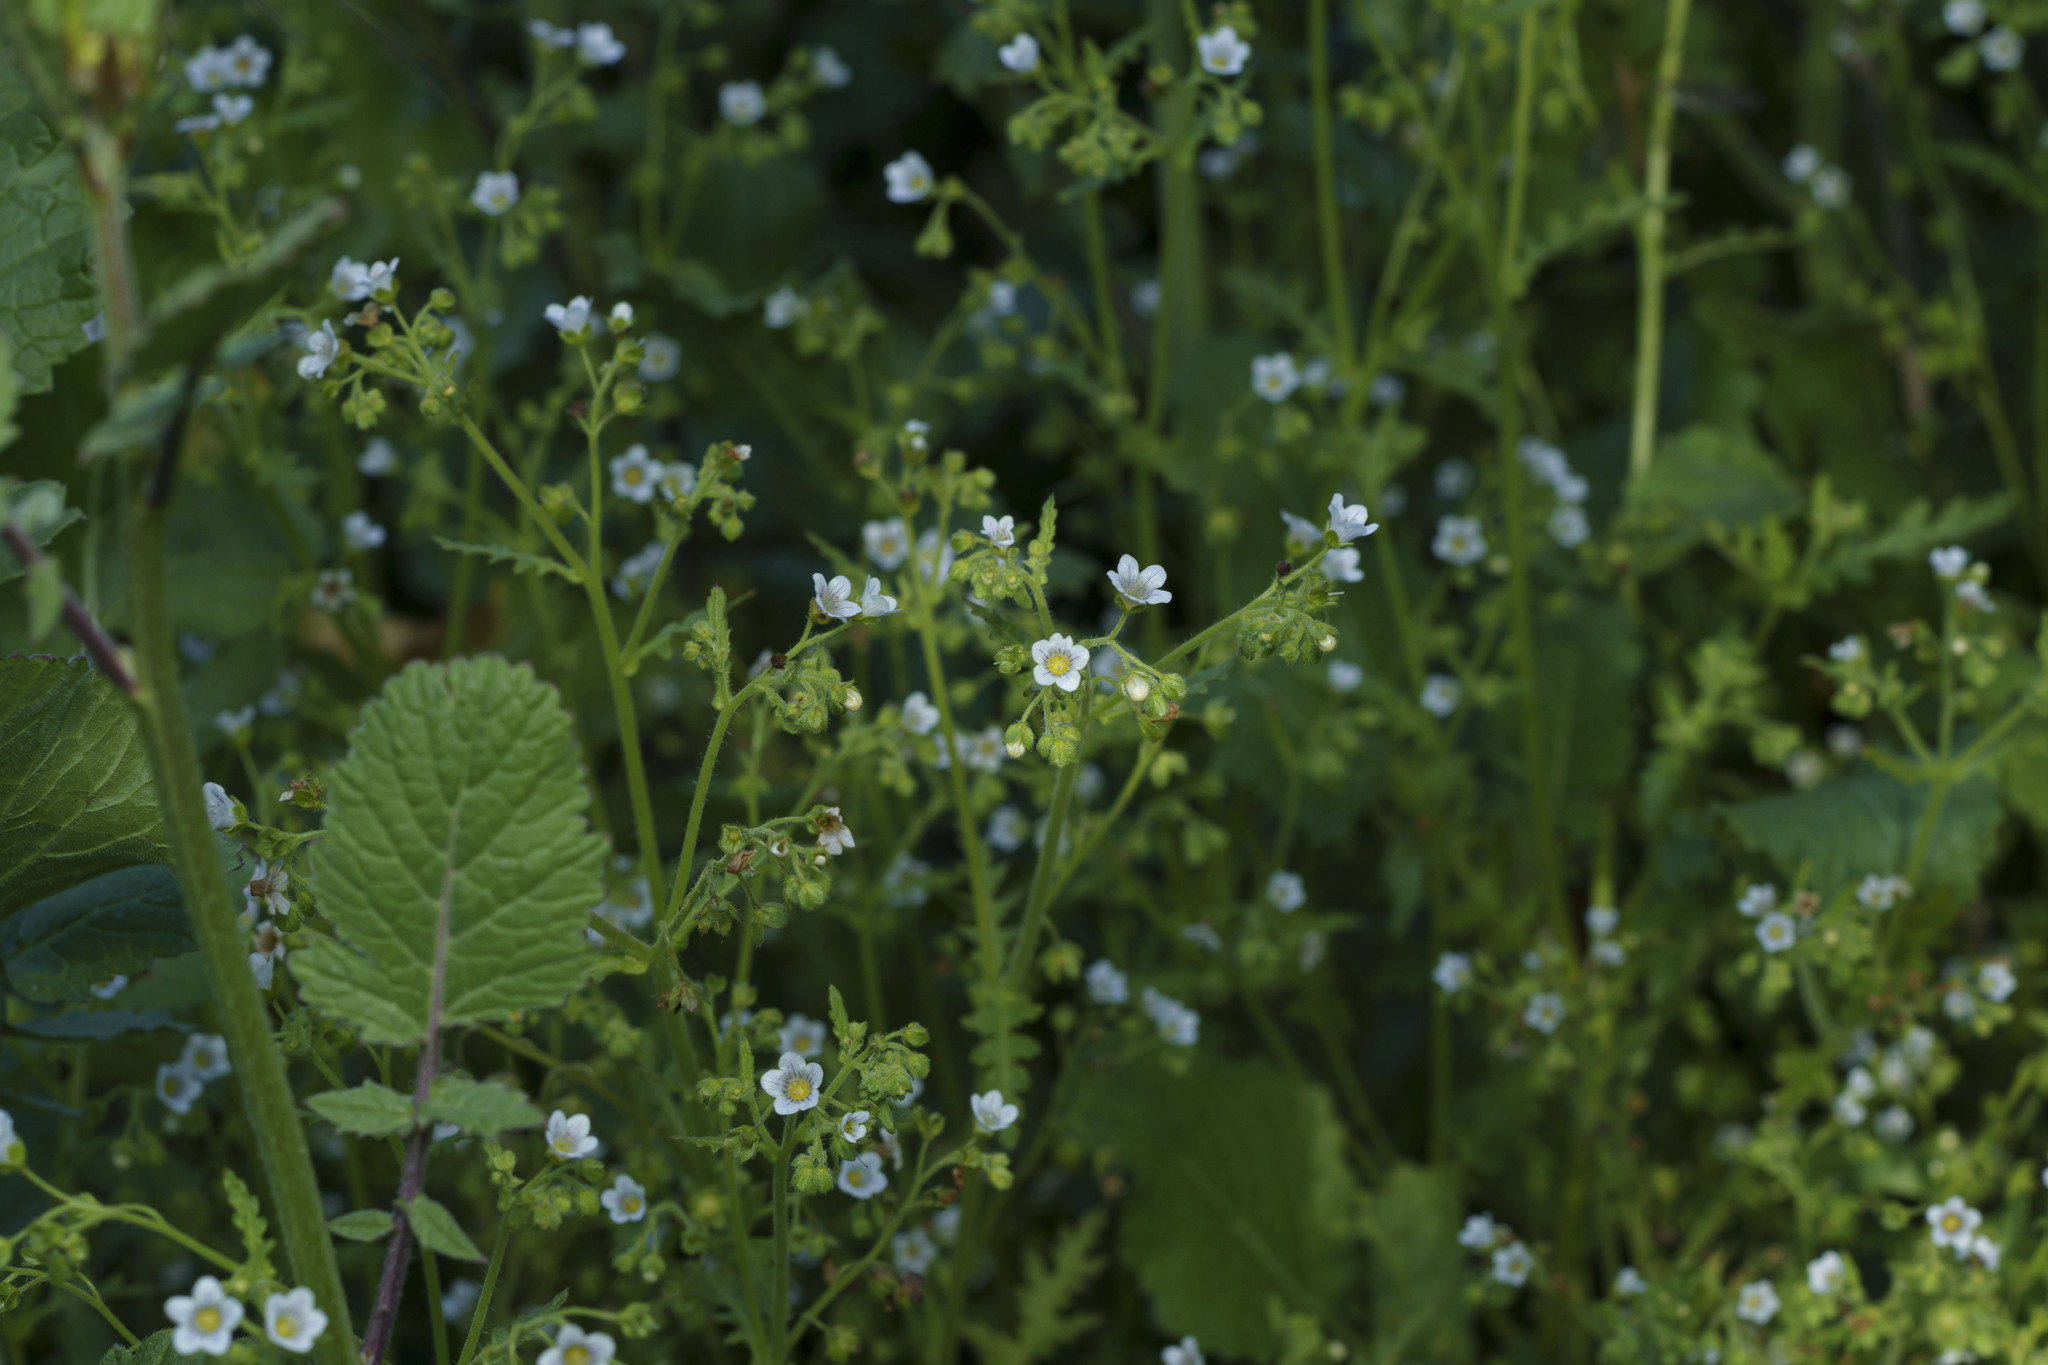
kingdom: Plantae
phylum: Tracheophyta
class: Magnoliopsida
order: Boraginales
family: Hydrophyllaceae
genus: Eucrypta
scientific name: Eucrypta chrysanthemifolia
